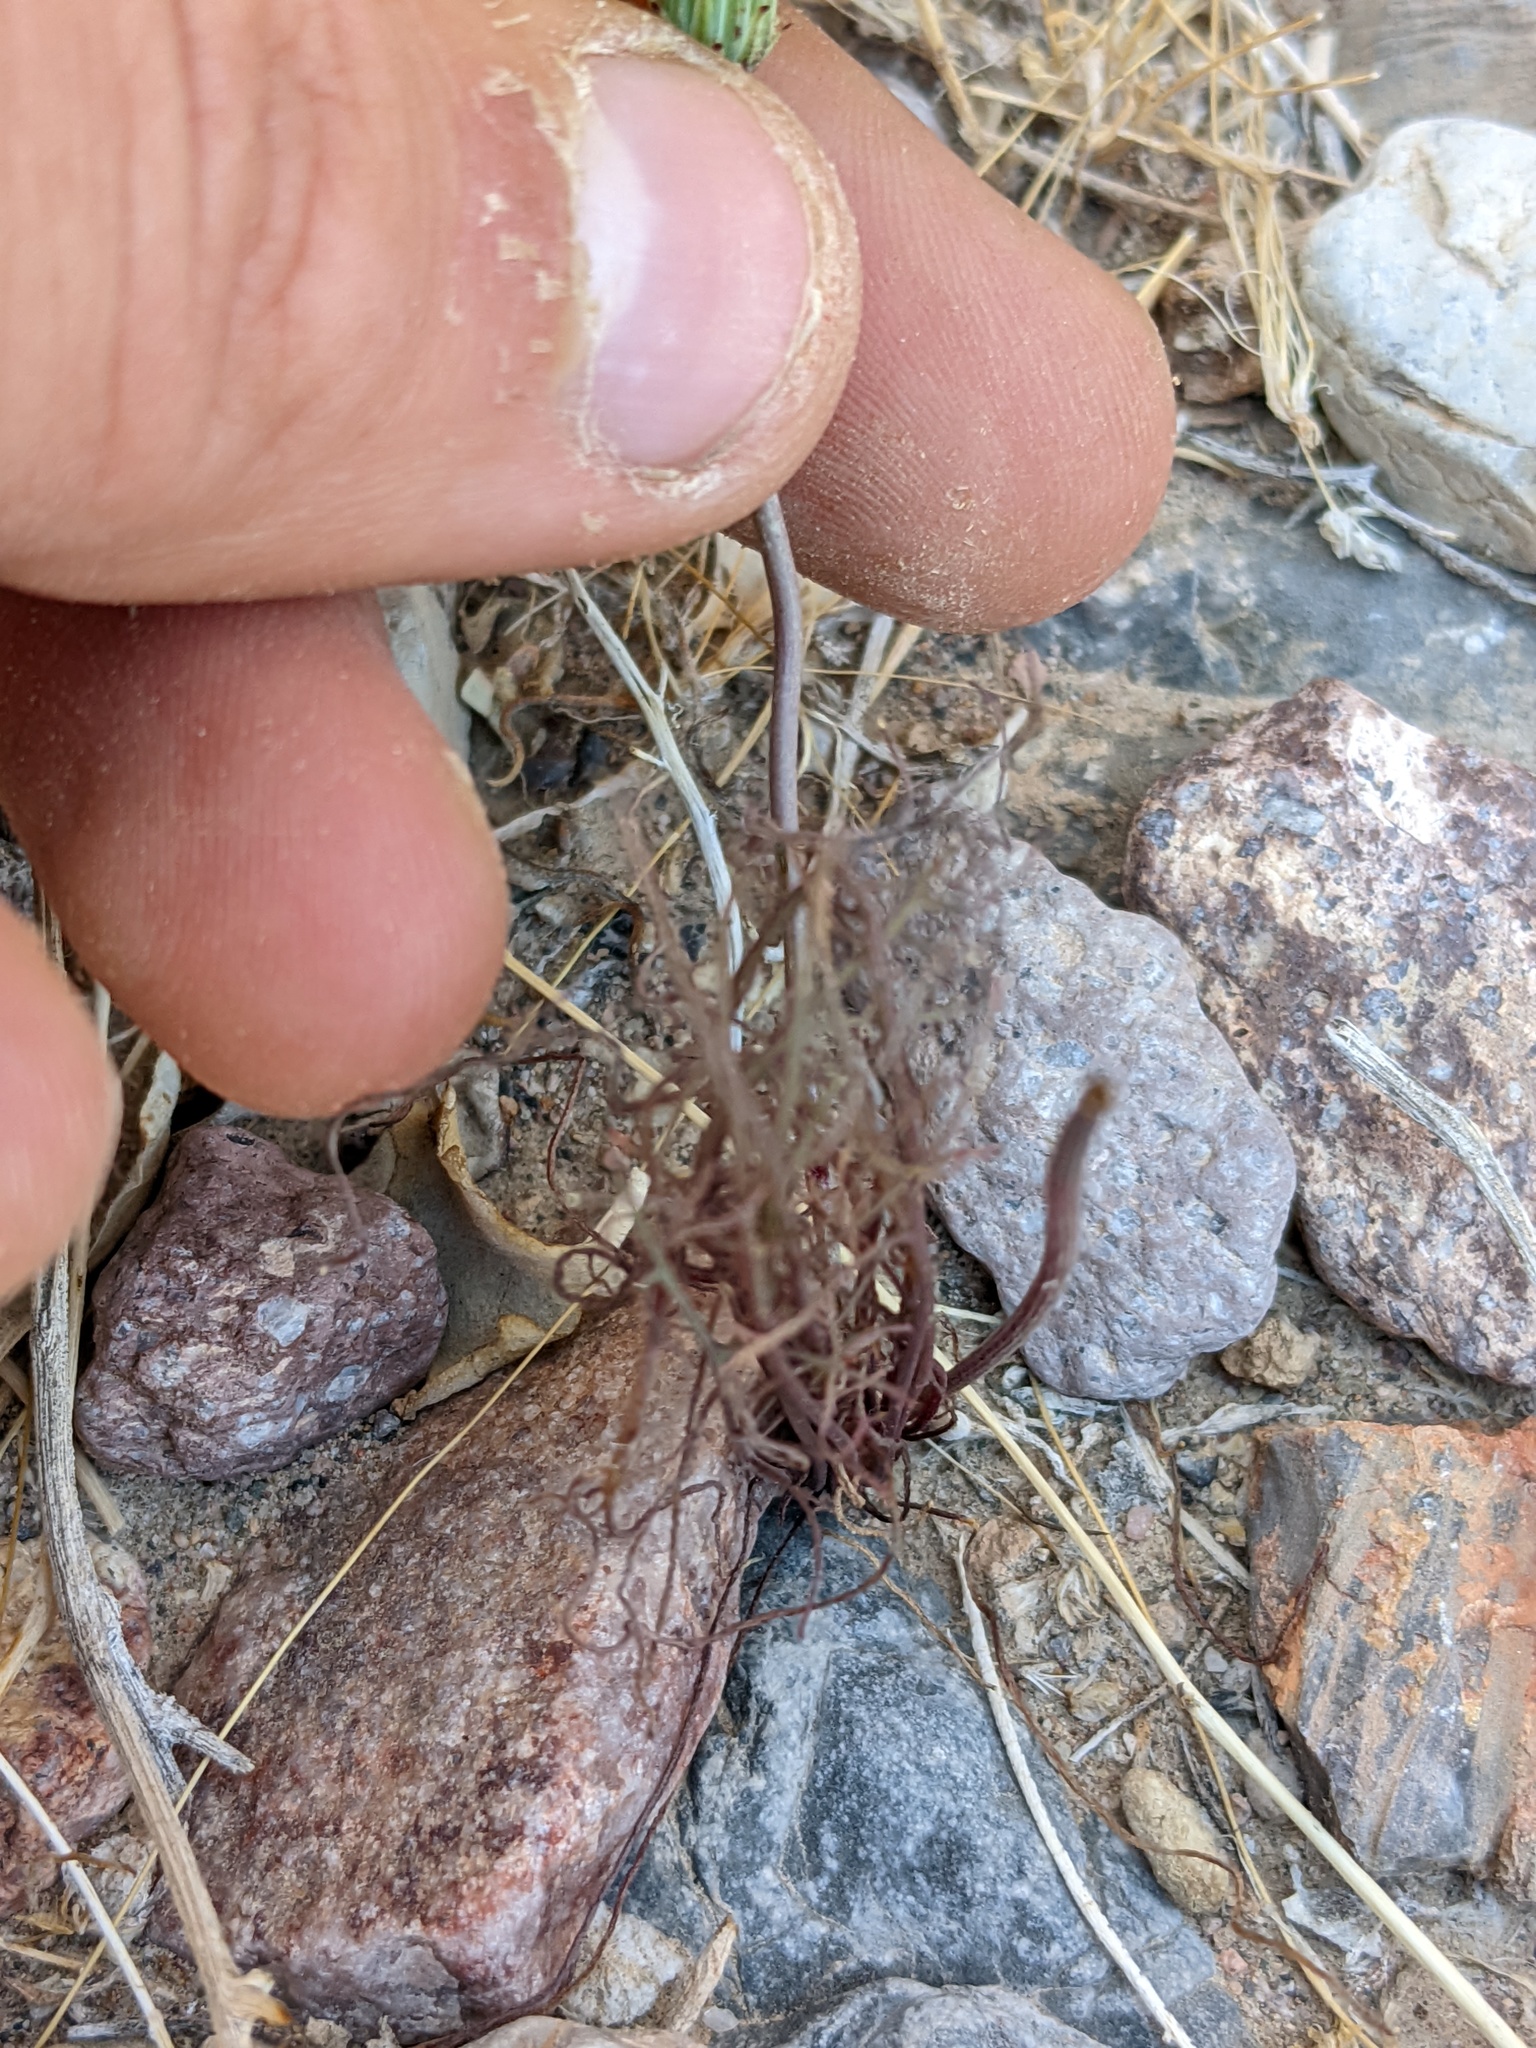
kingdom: Plantae
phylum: Tracheophyta
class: Magnoliopsida
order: Asterales
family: Asteraceae
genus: Malacothrix
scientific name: Malacothrix glabrata
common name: Smooth desert-dandelion
